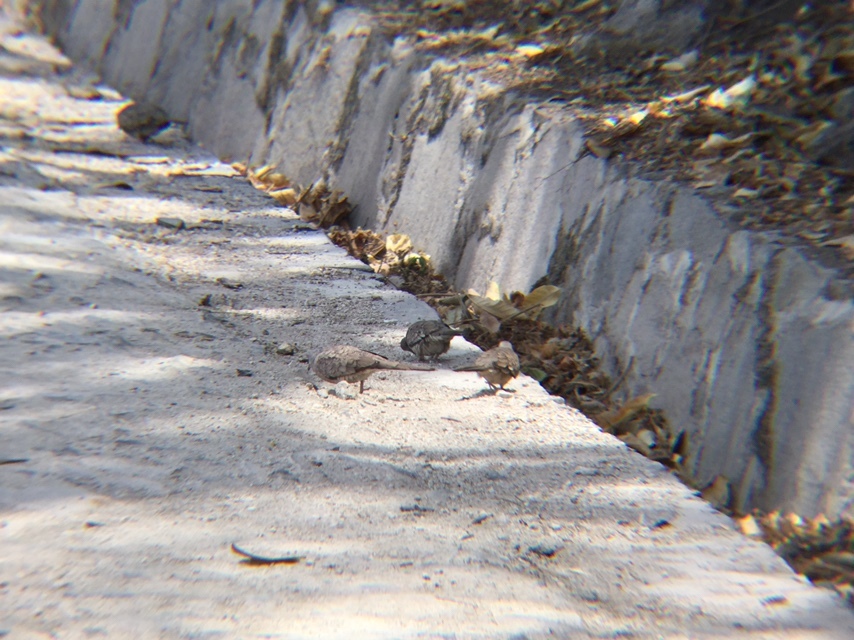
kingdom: Animalia
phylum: Chordata
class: Aves
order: Columbiformes
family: Columbidae
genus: Columbina
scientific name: Columbina inca
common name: Inca dove
